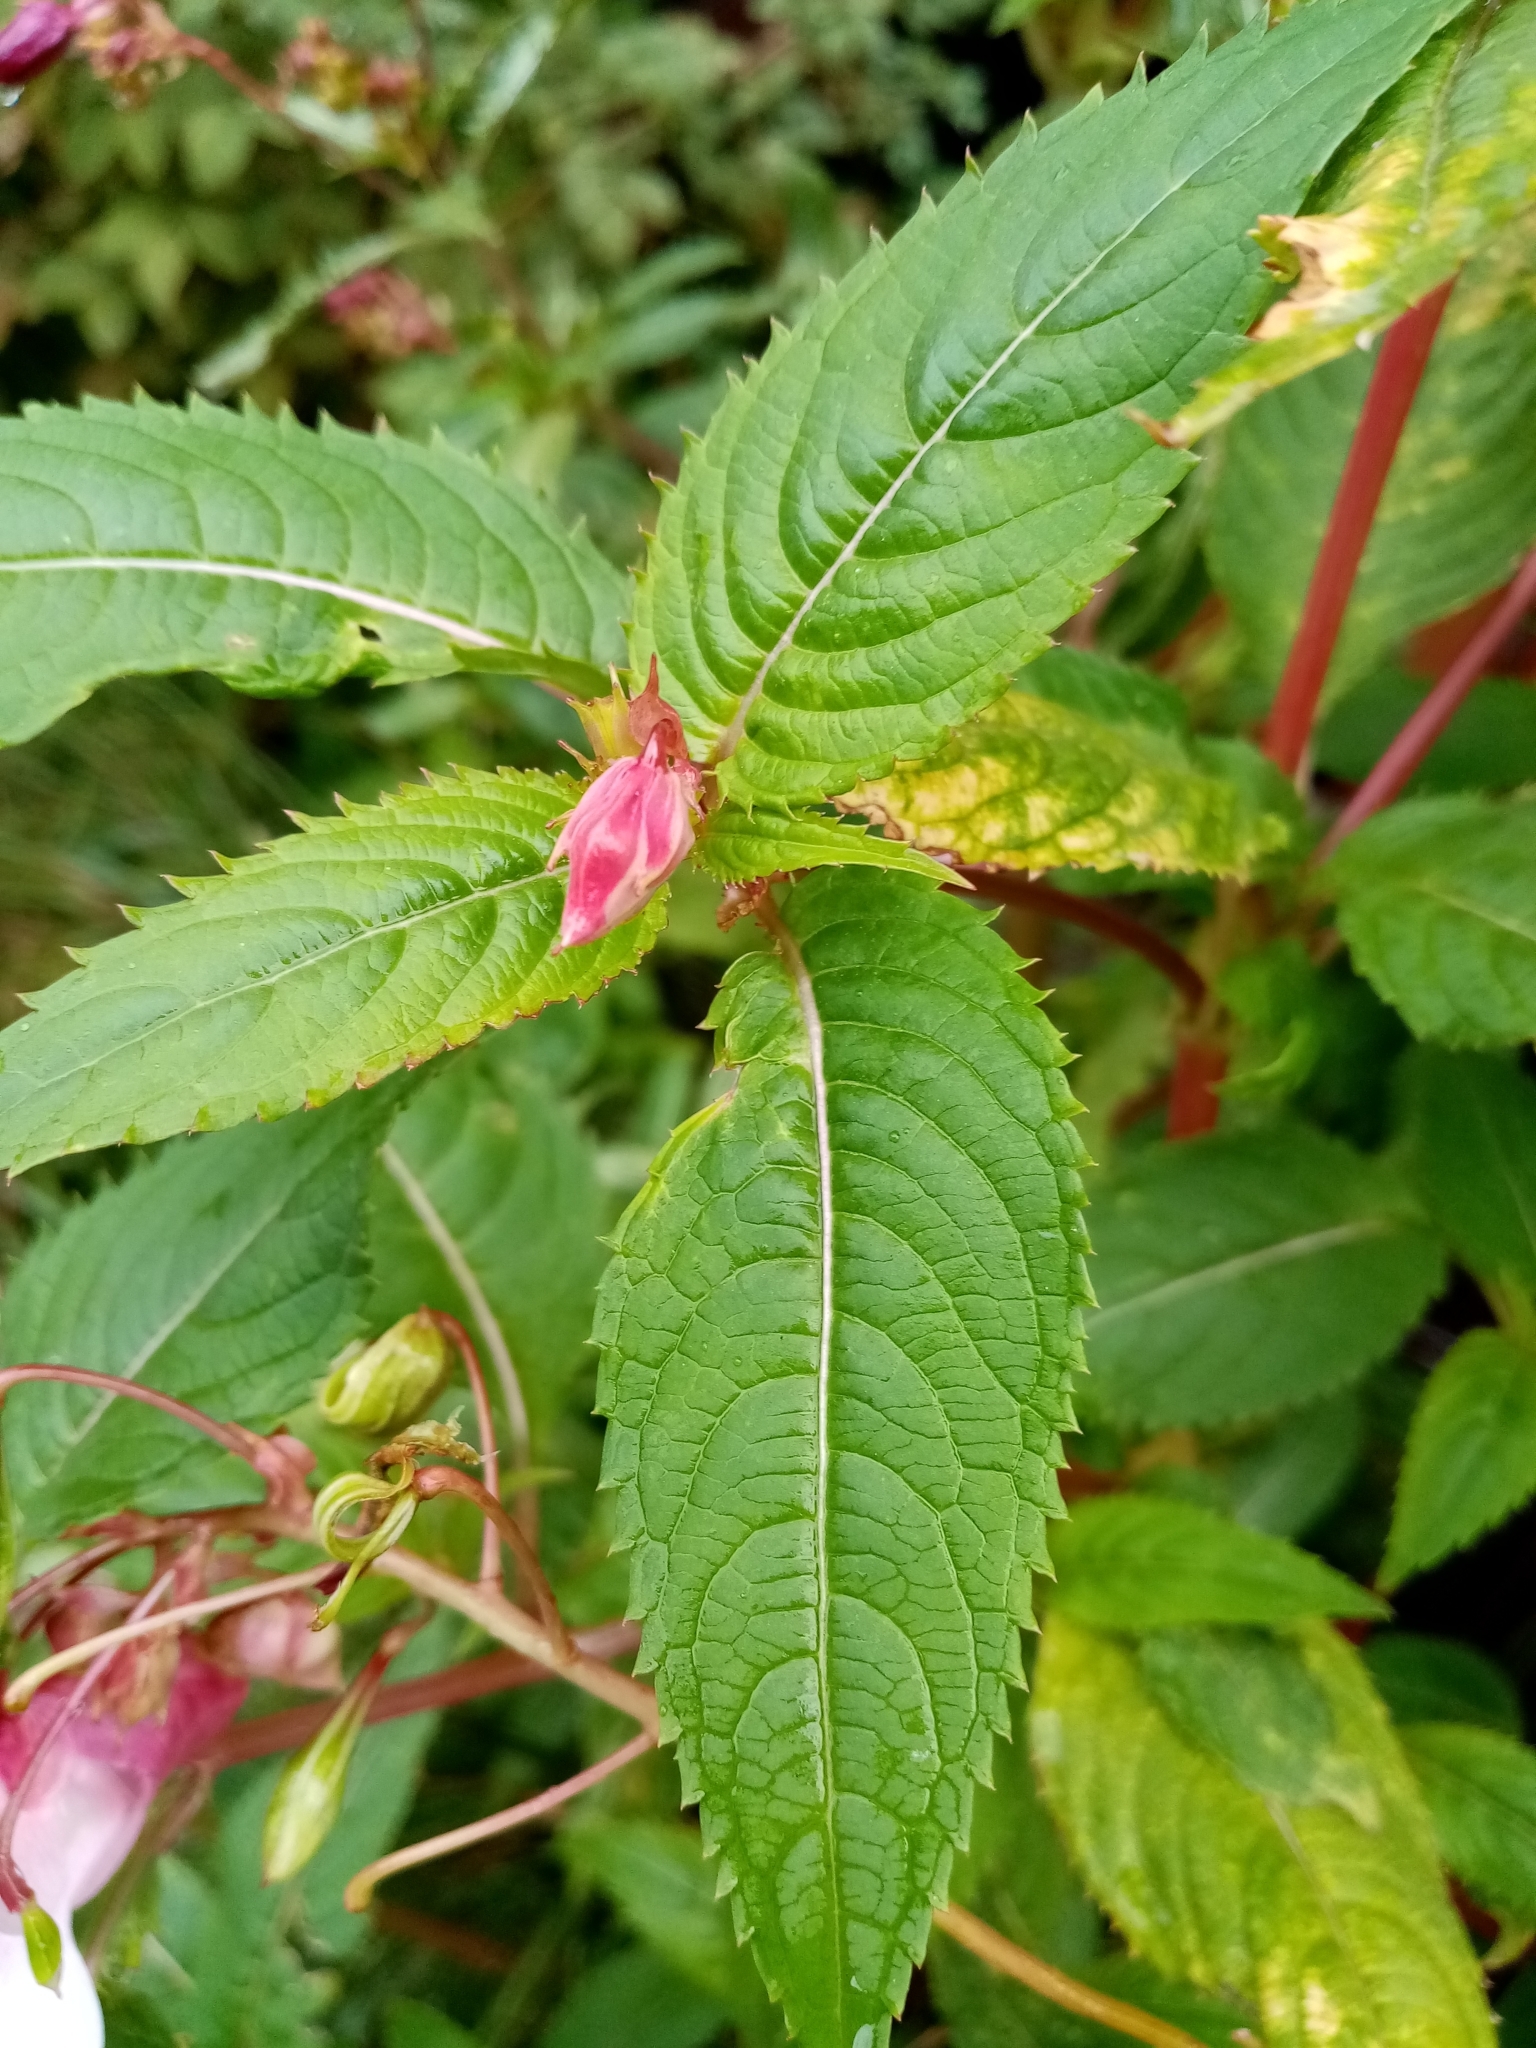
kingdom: Plantae
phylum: Tracheophyta
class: Magnoliopsida
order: Ericales
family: Balsaminaceae
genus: Impatiens
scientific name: Impatiens glandulifera
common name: Himalayan balsam
